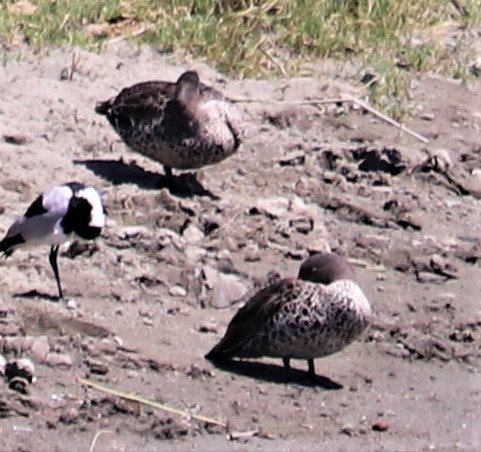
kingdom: Animalia
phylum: Chordata
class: Aves
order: Anseriformes
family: Anatidae
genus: Anas
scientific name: Anas undulata
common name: Yellow-billed duck
